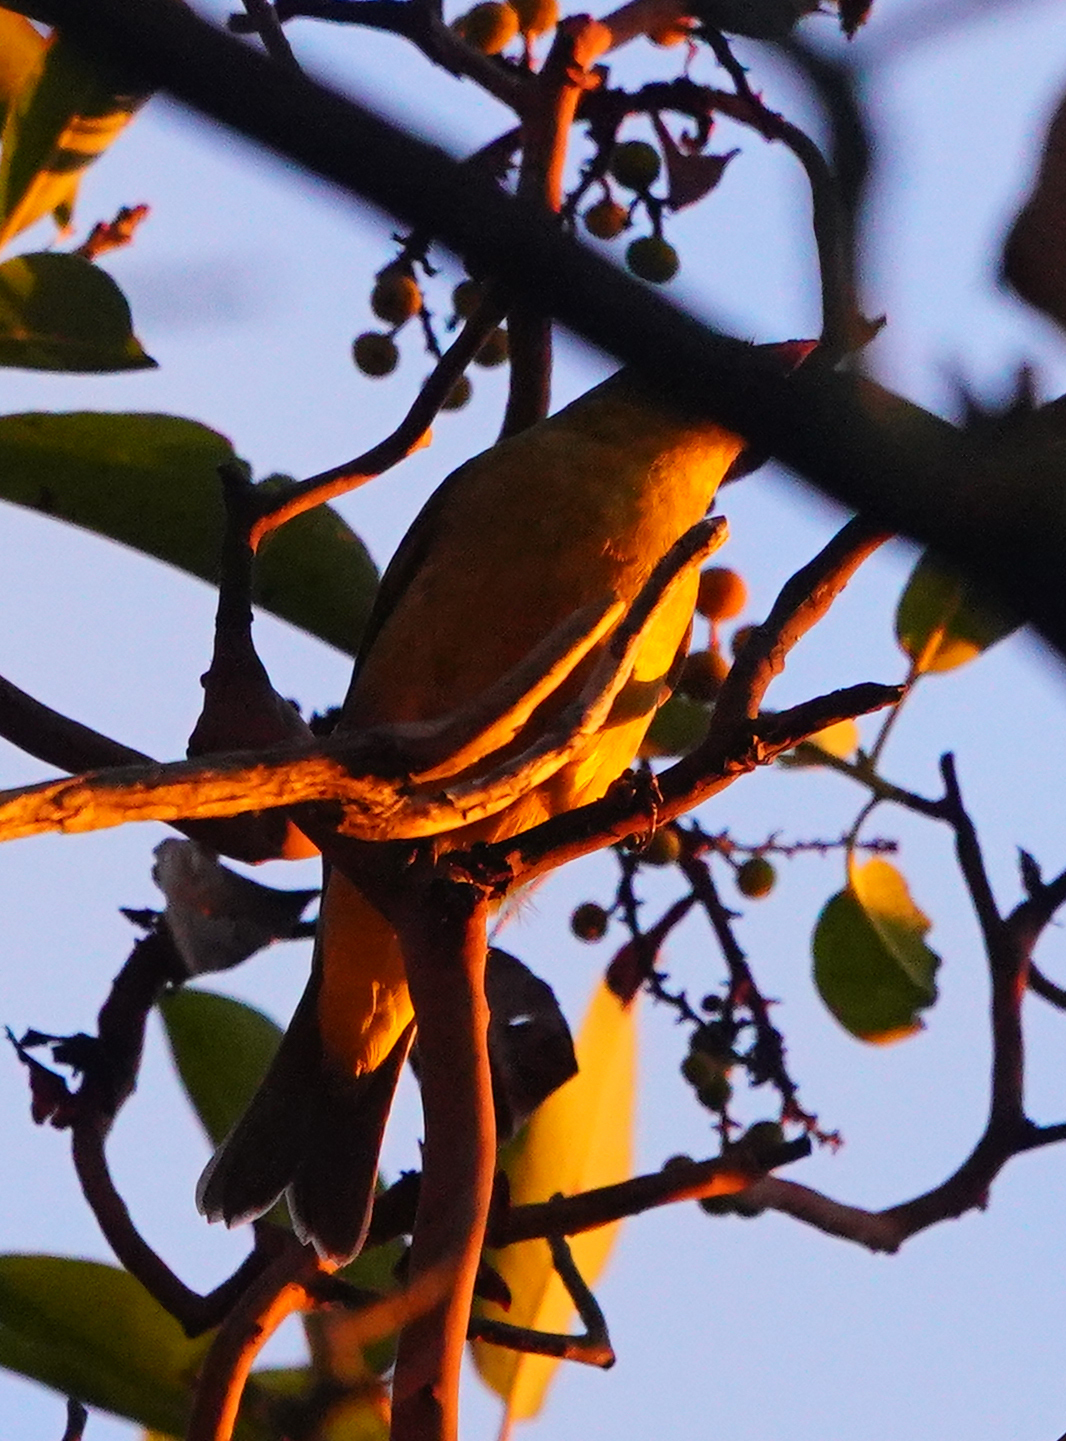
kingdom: Animalia
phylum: Chordata
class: Aves
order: Passeriformes
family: Cardinalidae
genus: Piranga
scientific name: Piranga ludoviciana
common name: Western tanager
